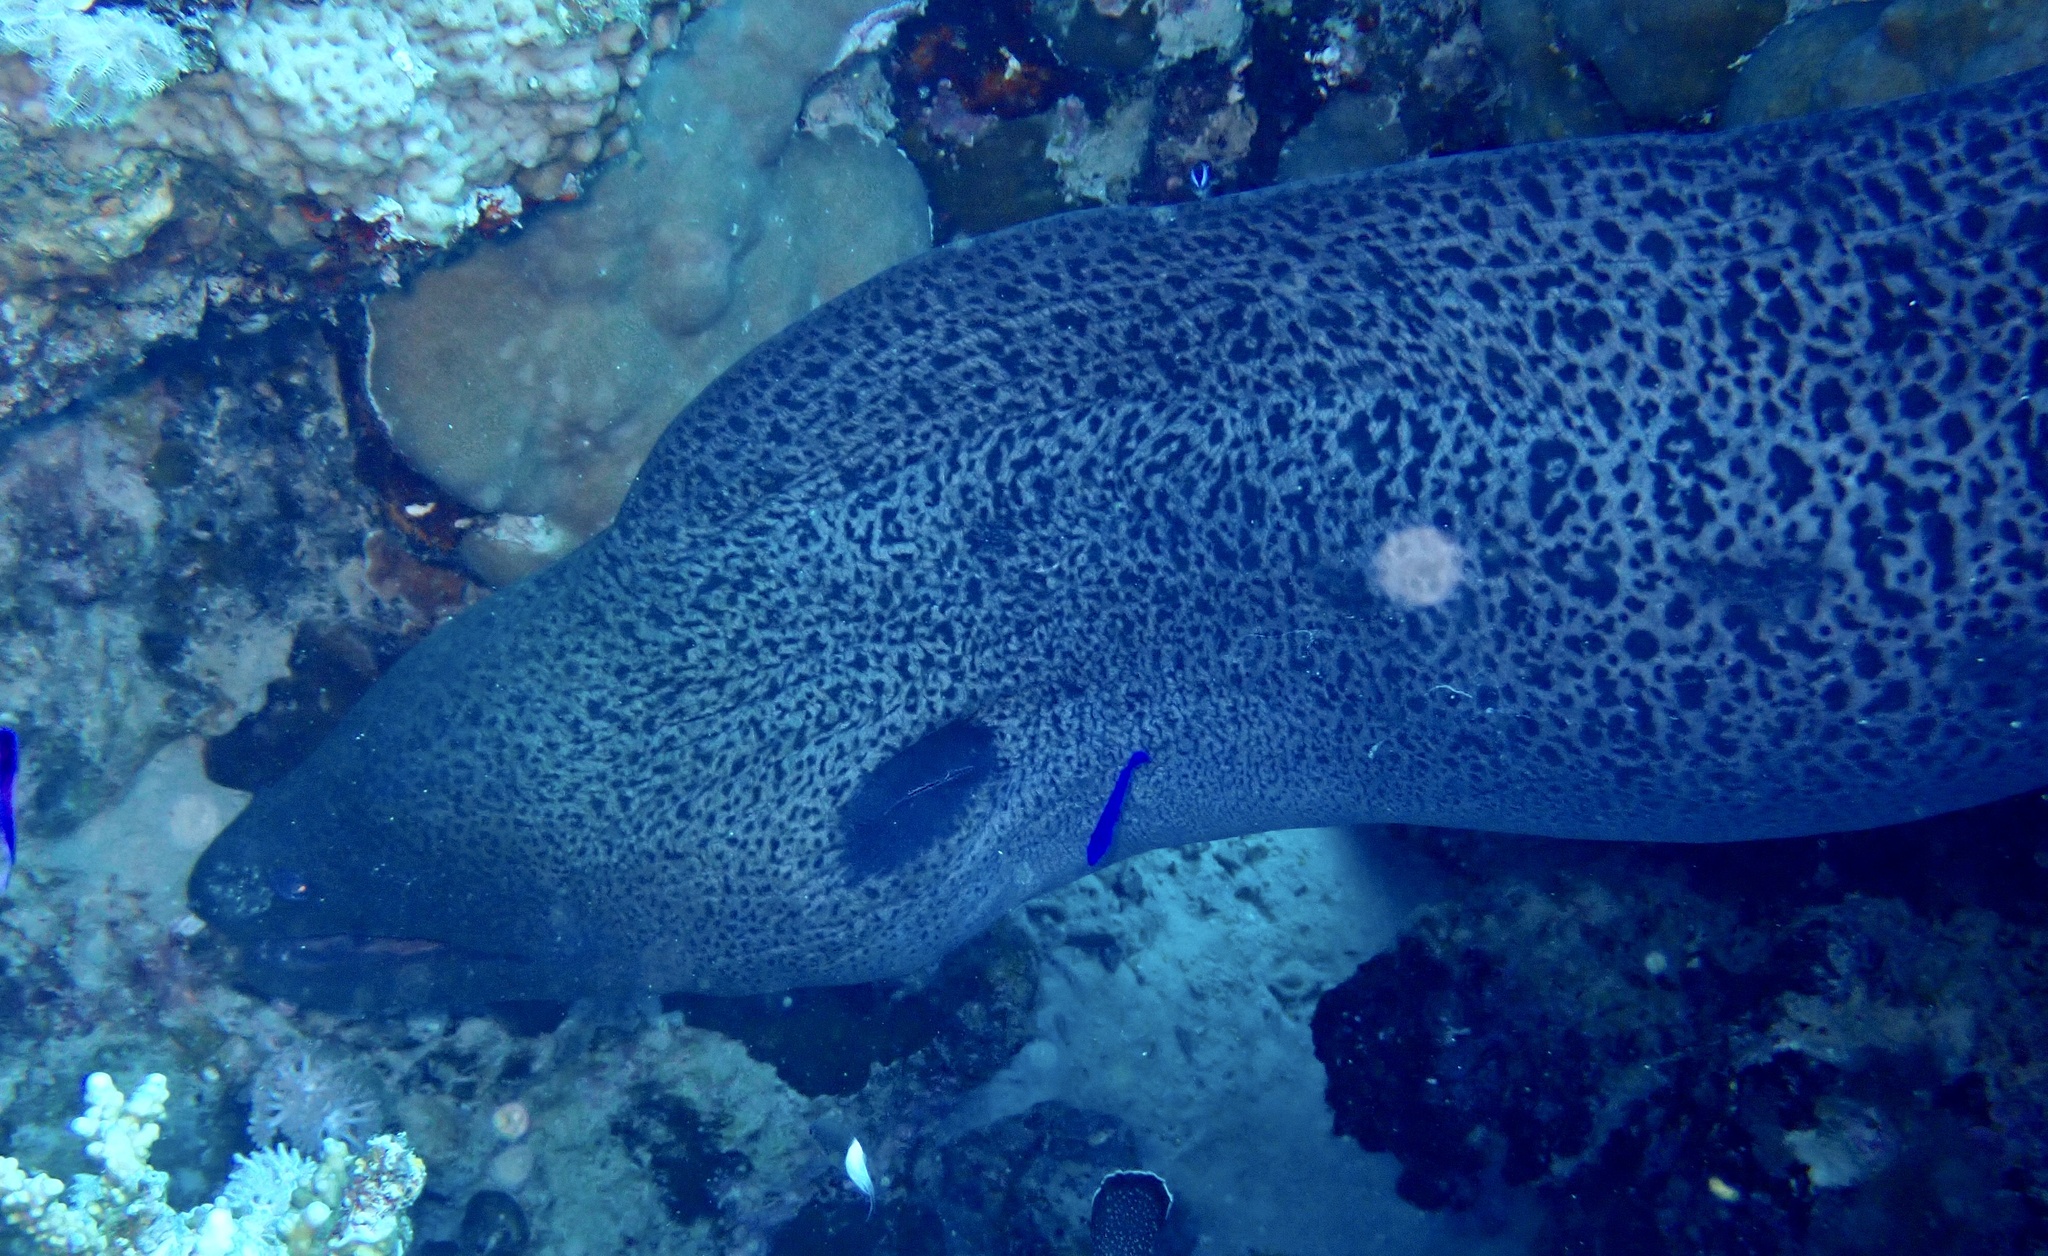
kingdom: Animalia
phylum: Chordata
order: Anguilliformes
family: Muraenidae
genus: Gymnothorax
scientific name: Gymnothorax javanicus
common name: Giant moray
